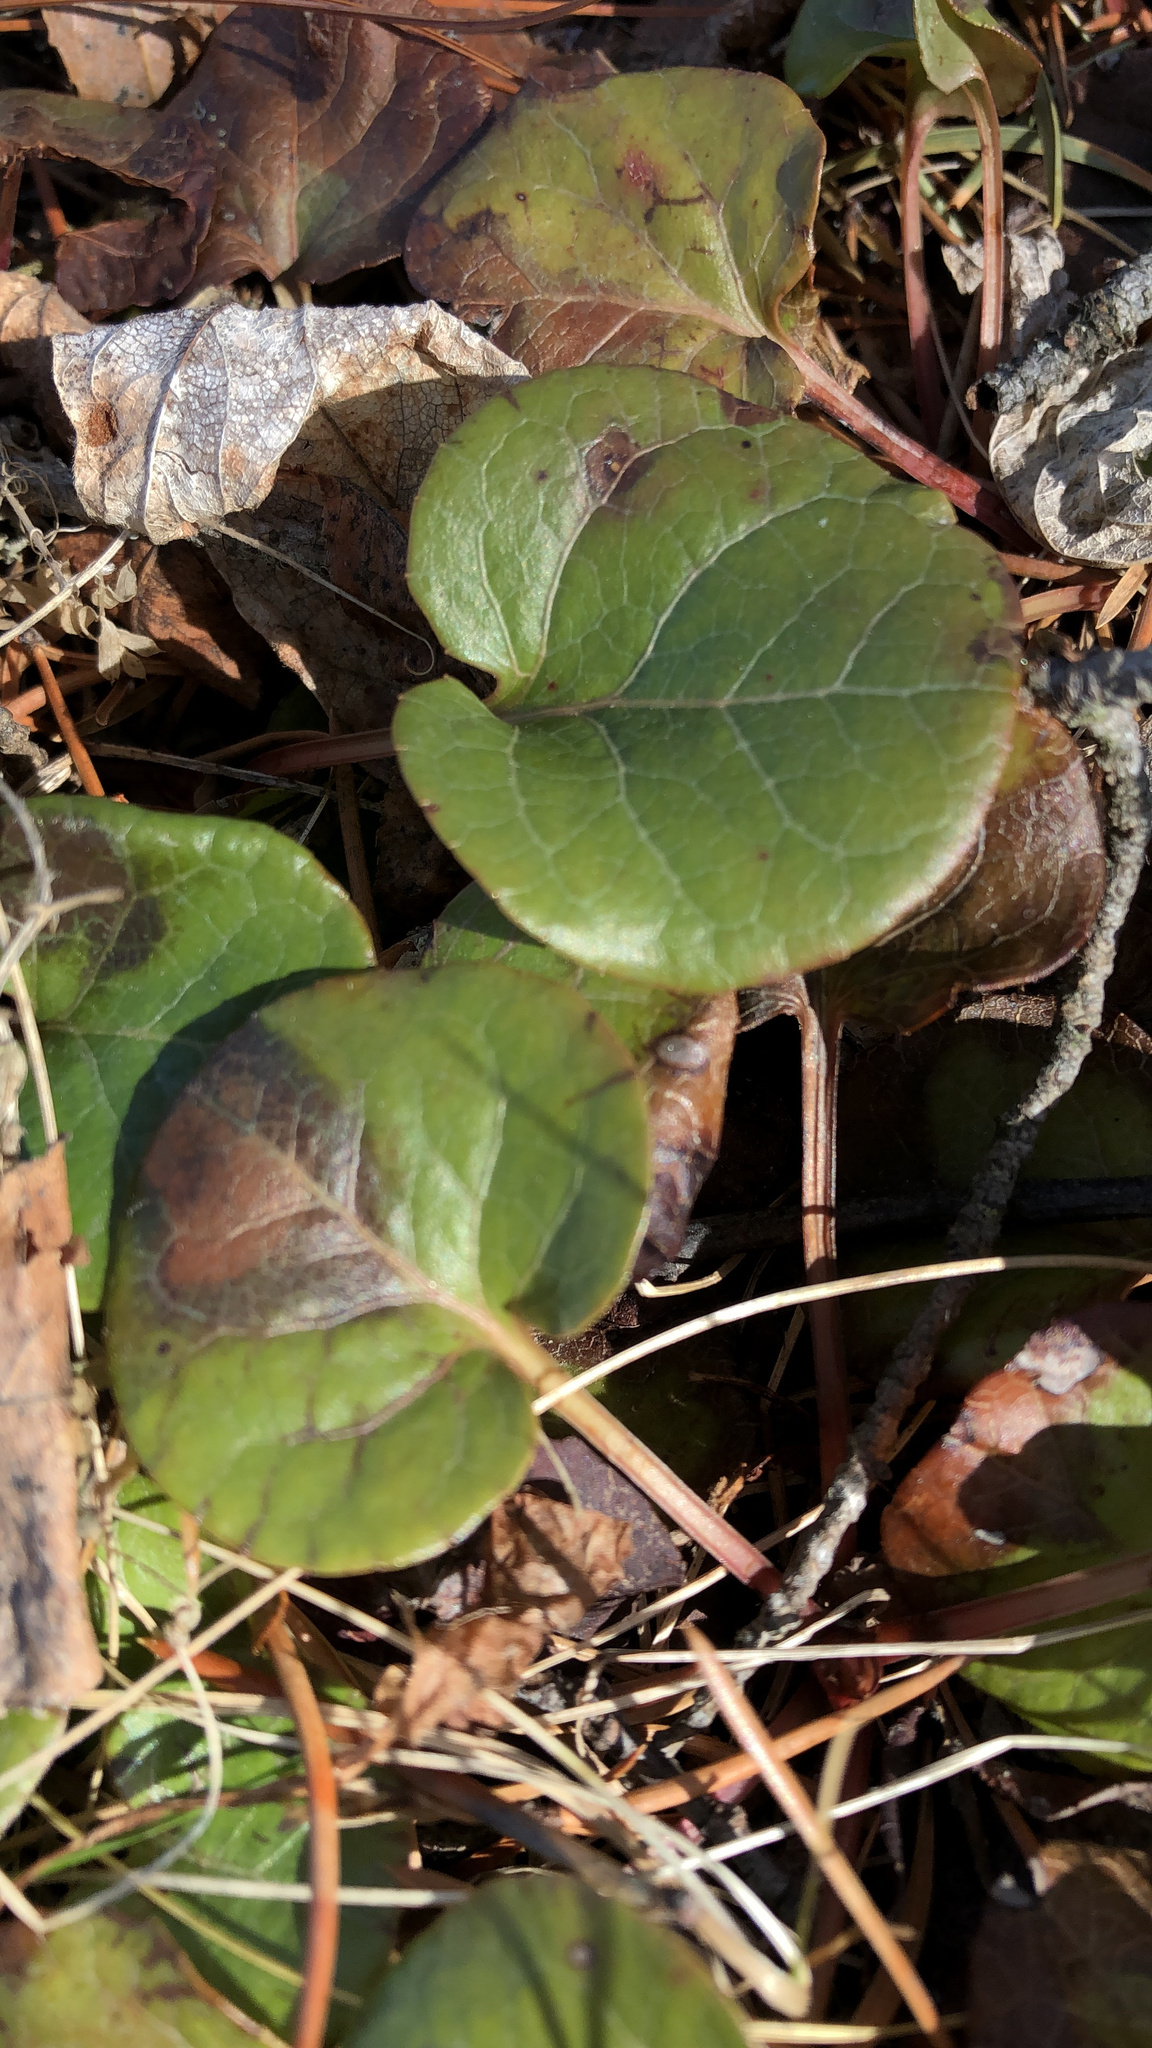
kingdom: Plantae
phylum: Tracheophyta
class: Magnoliopsida
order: Ericales
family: Ericaceae
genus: Pyrola
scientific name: Pyrola asarifolia
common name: Bog wintergreen
